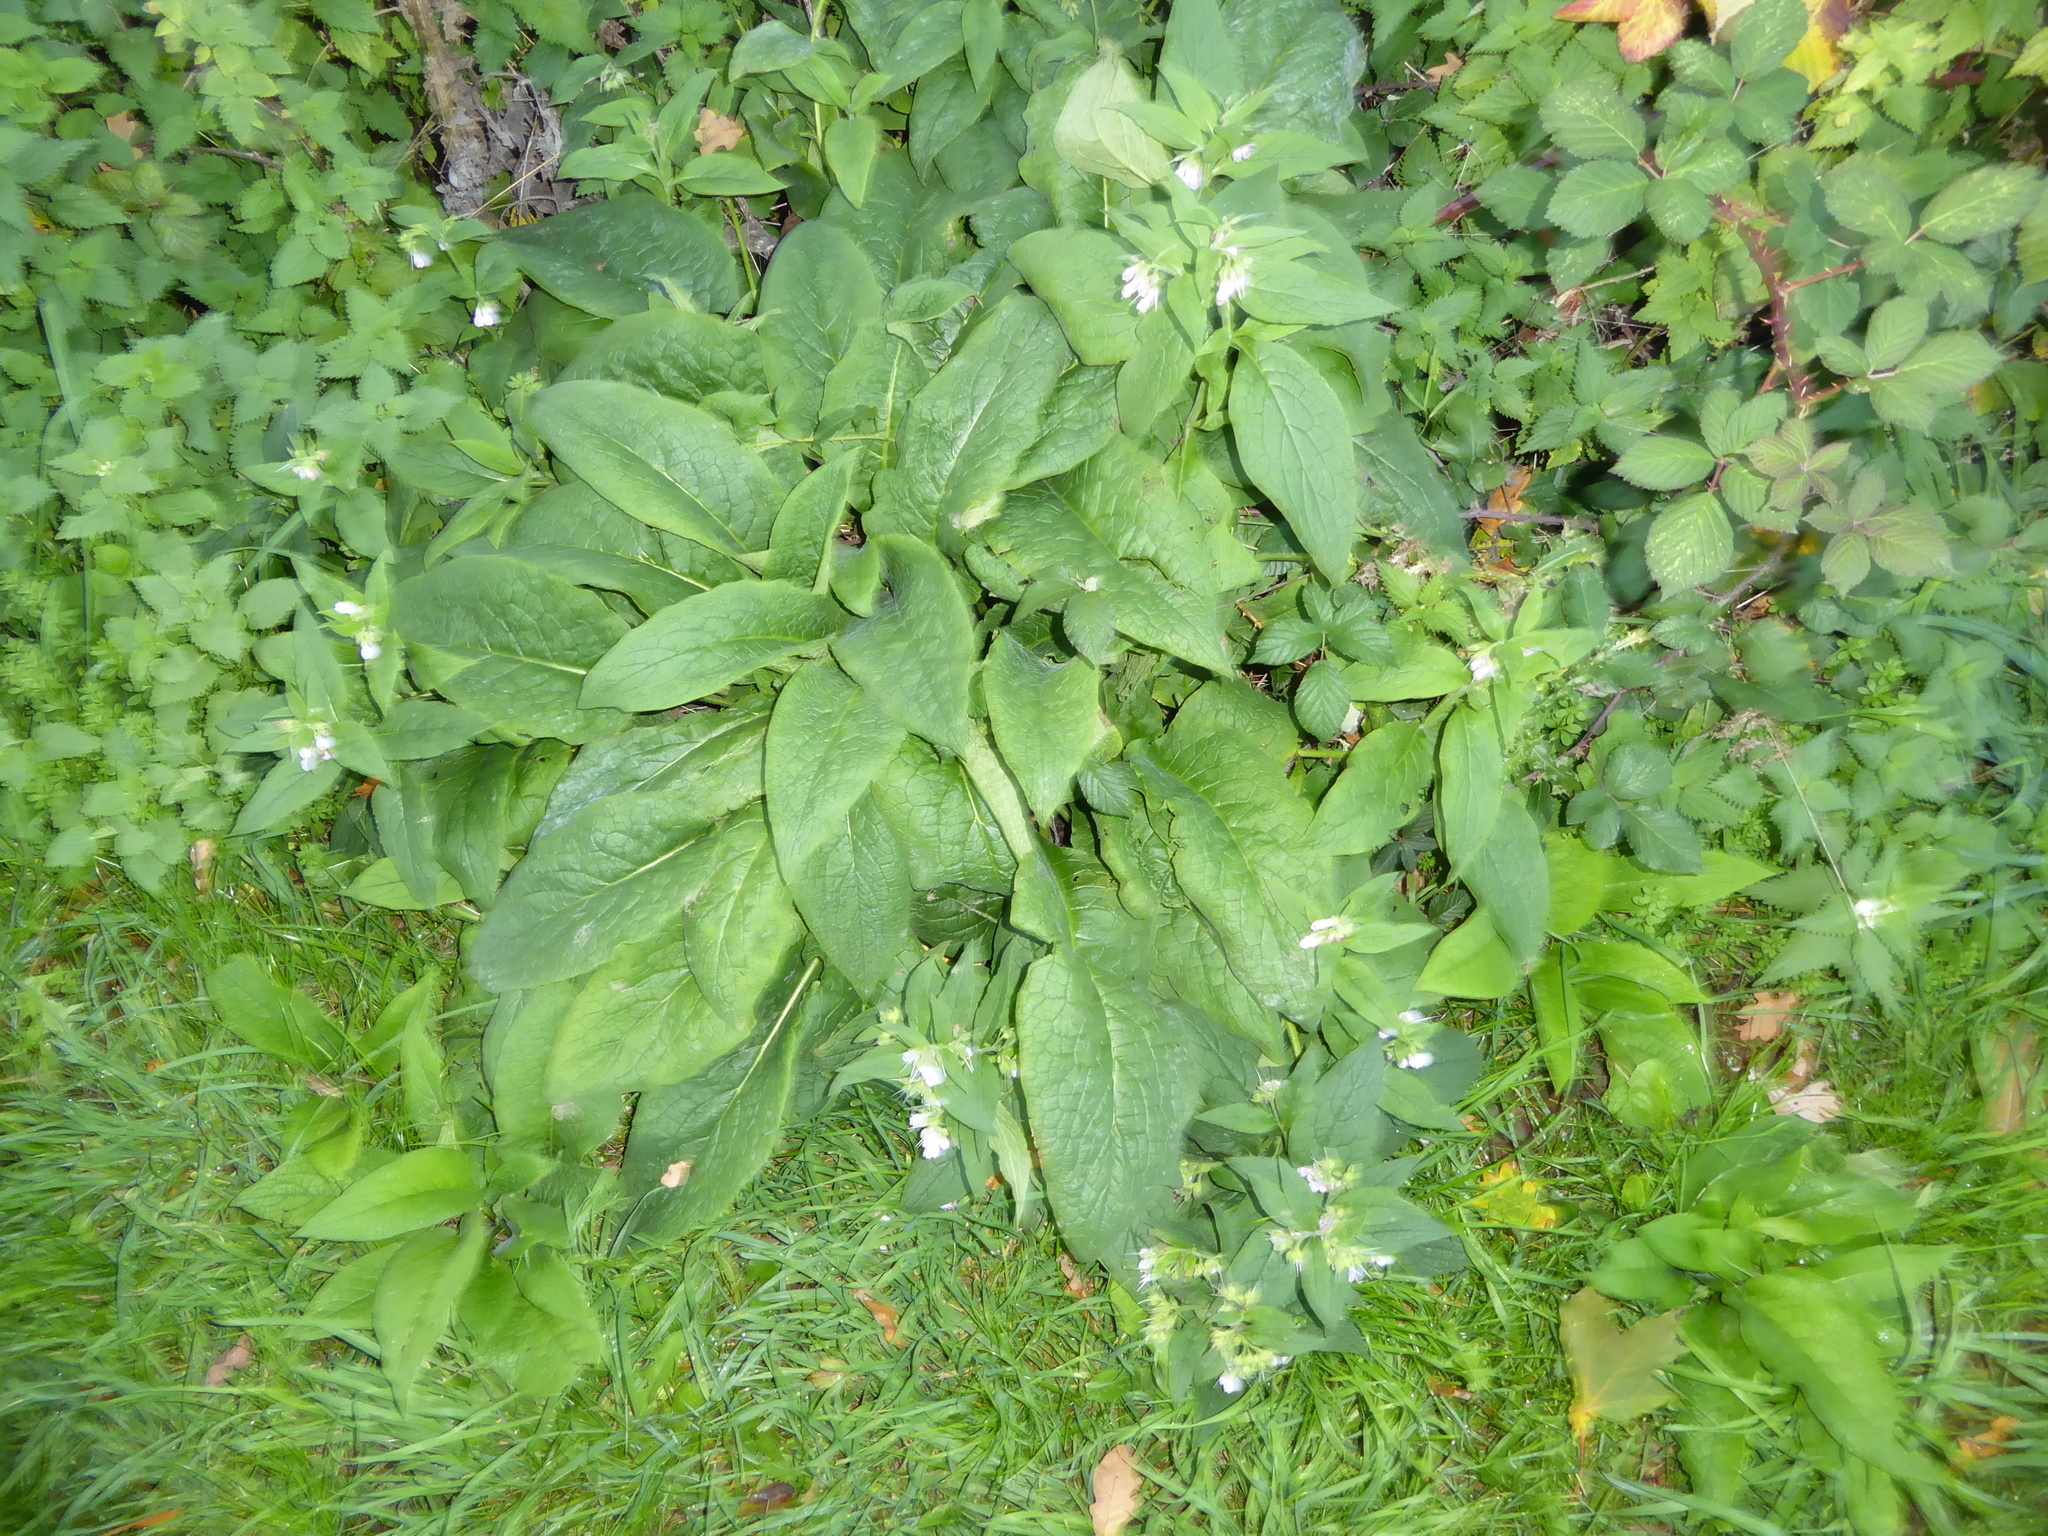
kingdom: Plantae
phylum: Tracheophyta
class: Magnoliopsida
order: Boraginales
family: Boraginaceae
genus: Symphytum
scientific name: Symphytum uplandicum
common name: Russian comfrey
